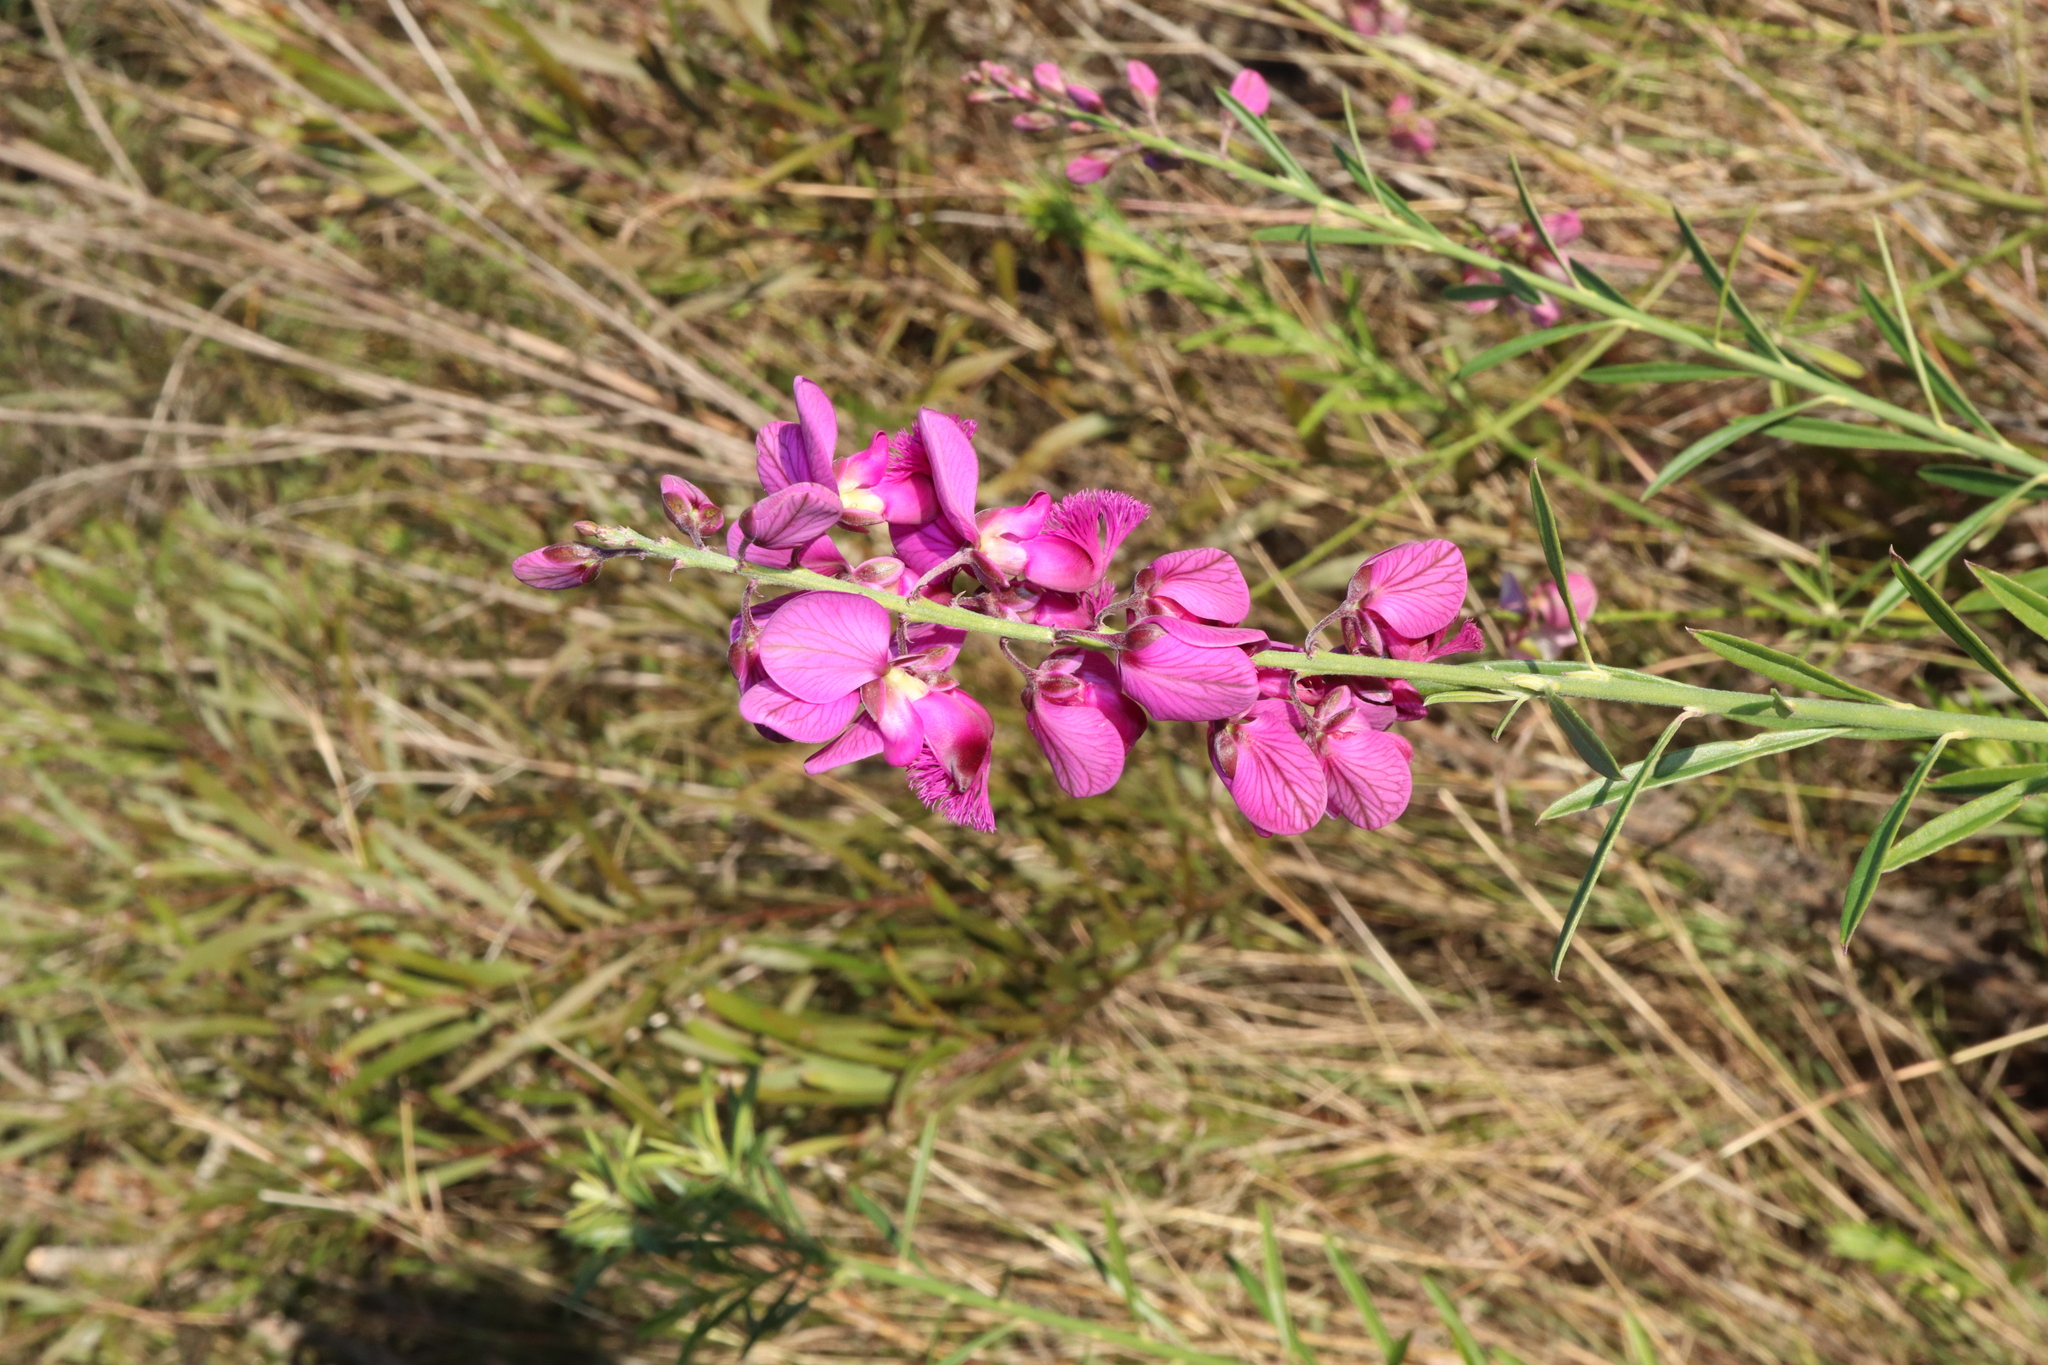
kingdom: Plantae
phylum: Tracheophyta
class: Magnoliopsida
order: Fabales
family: Polygalaceae
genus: Polygala
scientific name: Polygala virgata
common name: Milkwort
